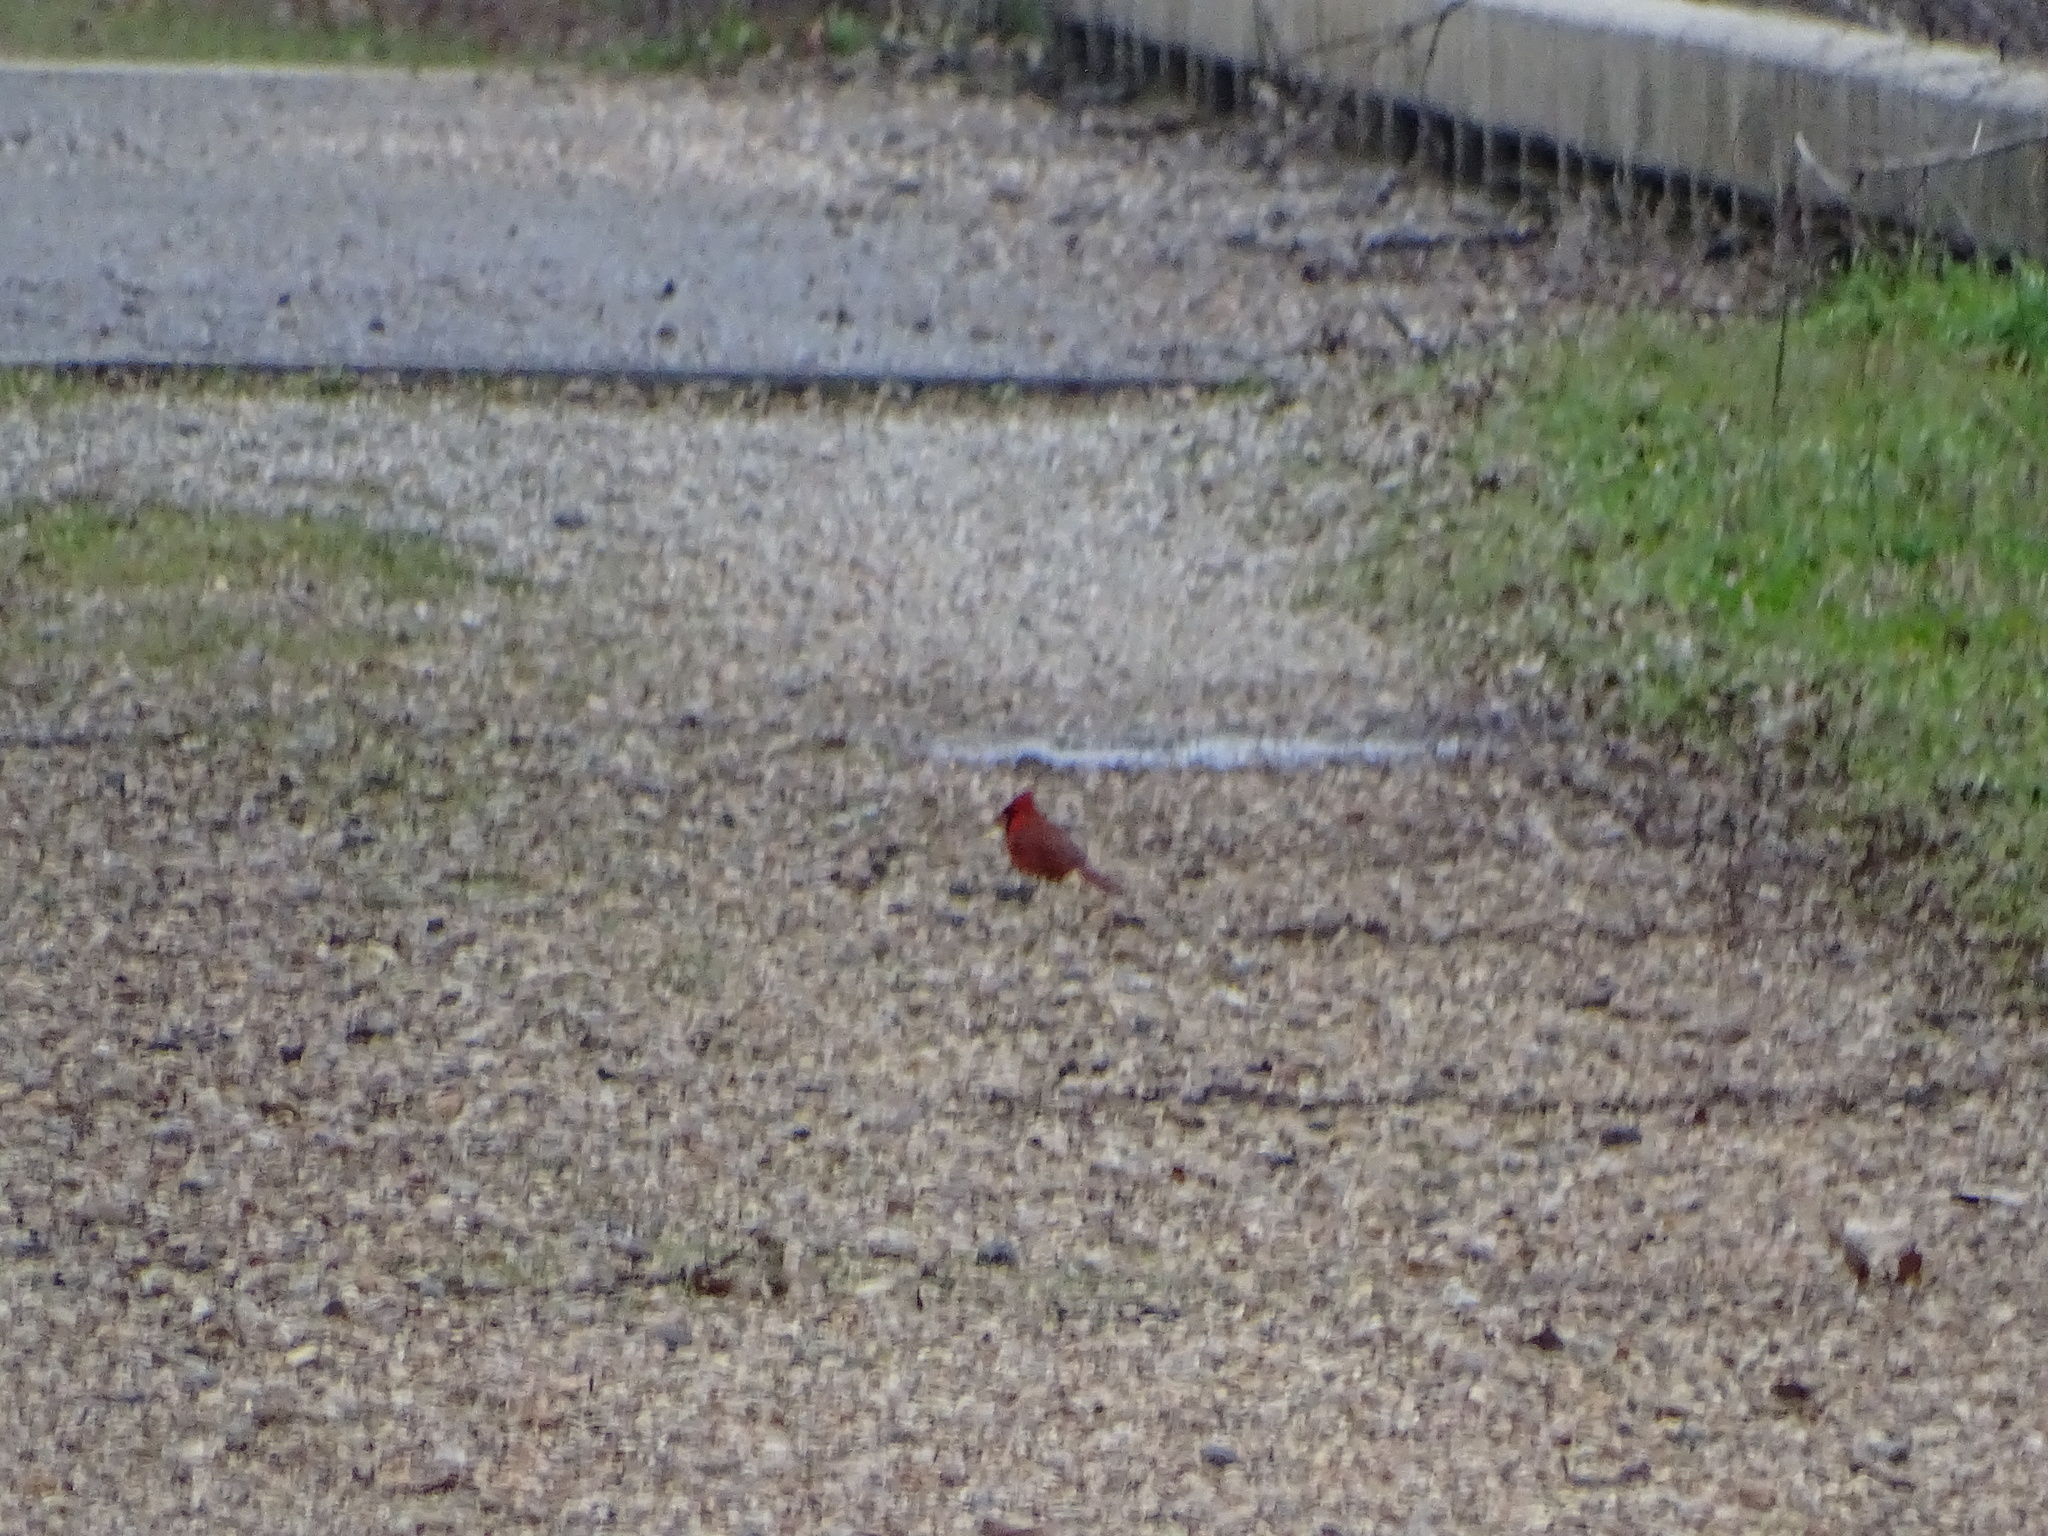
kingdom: Animalia
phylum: Chordata
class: Aves
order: Passeriformes
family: Cardinalidae
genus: Cardinalis
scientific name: Cardinalis cardinalis
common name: Northern cardinal
